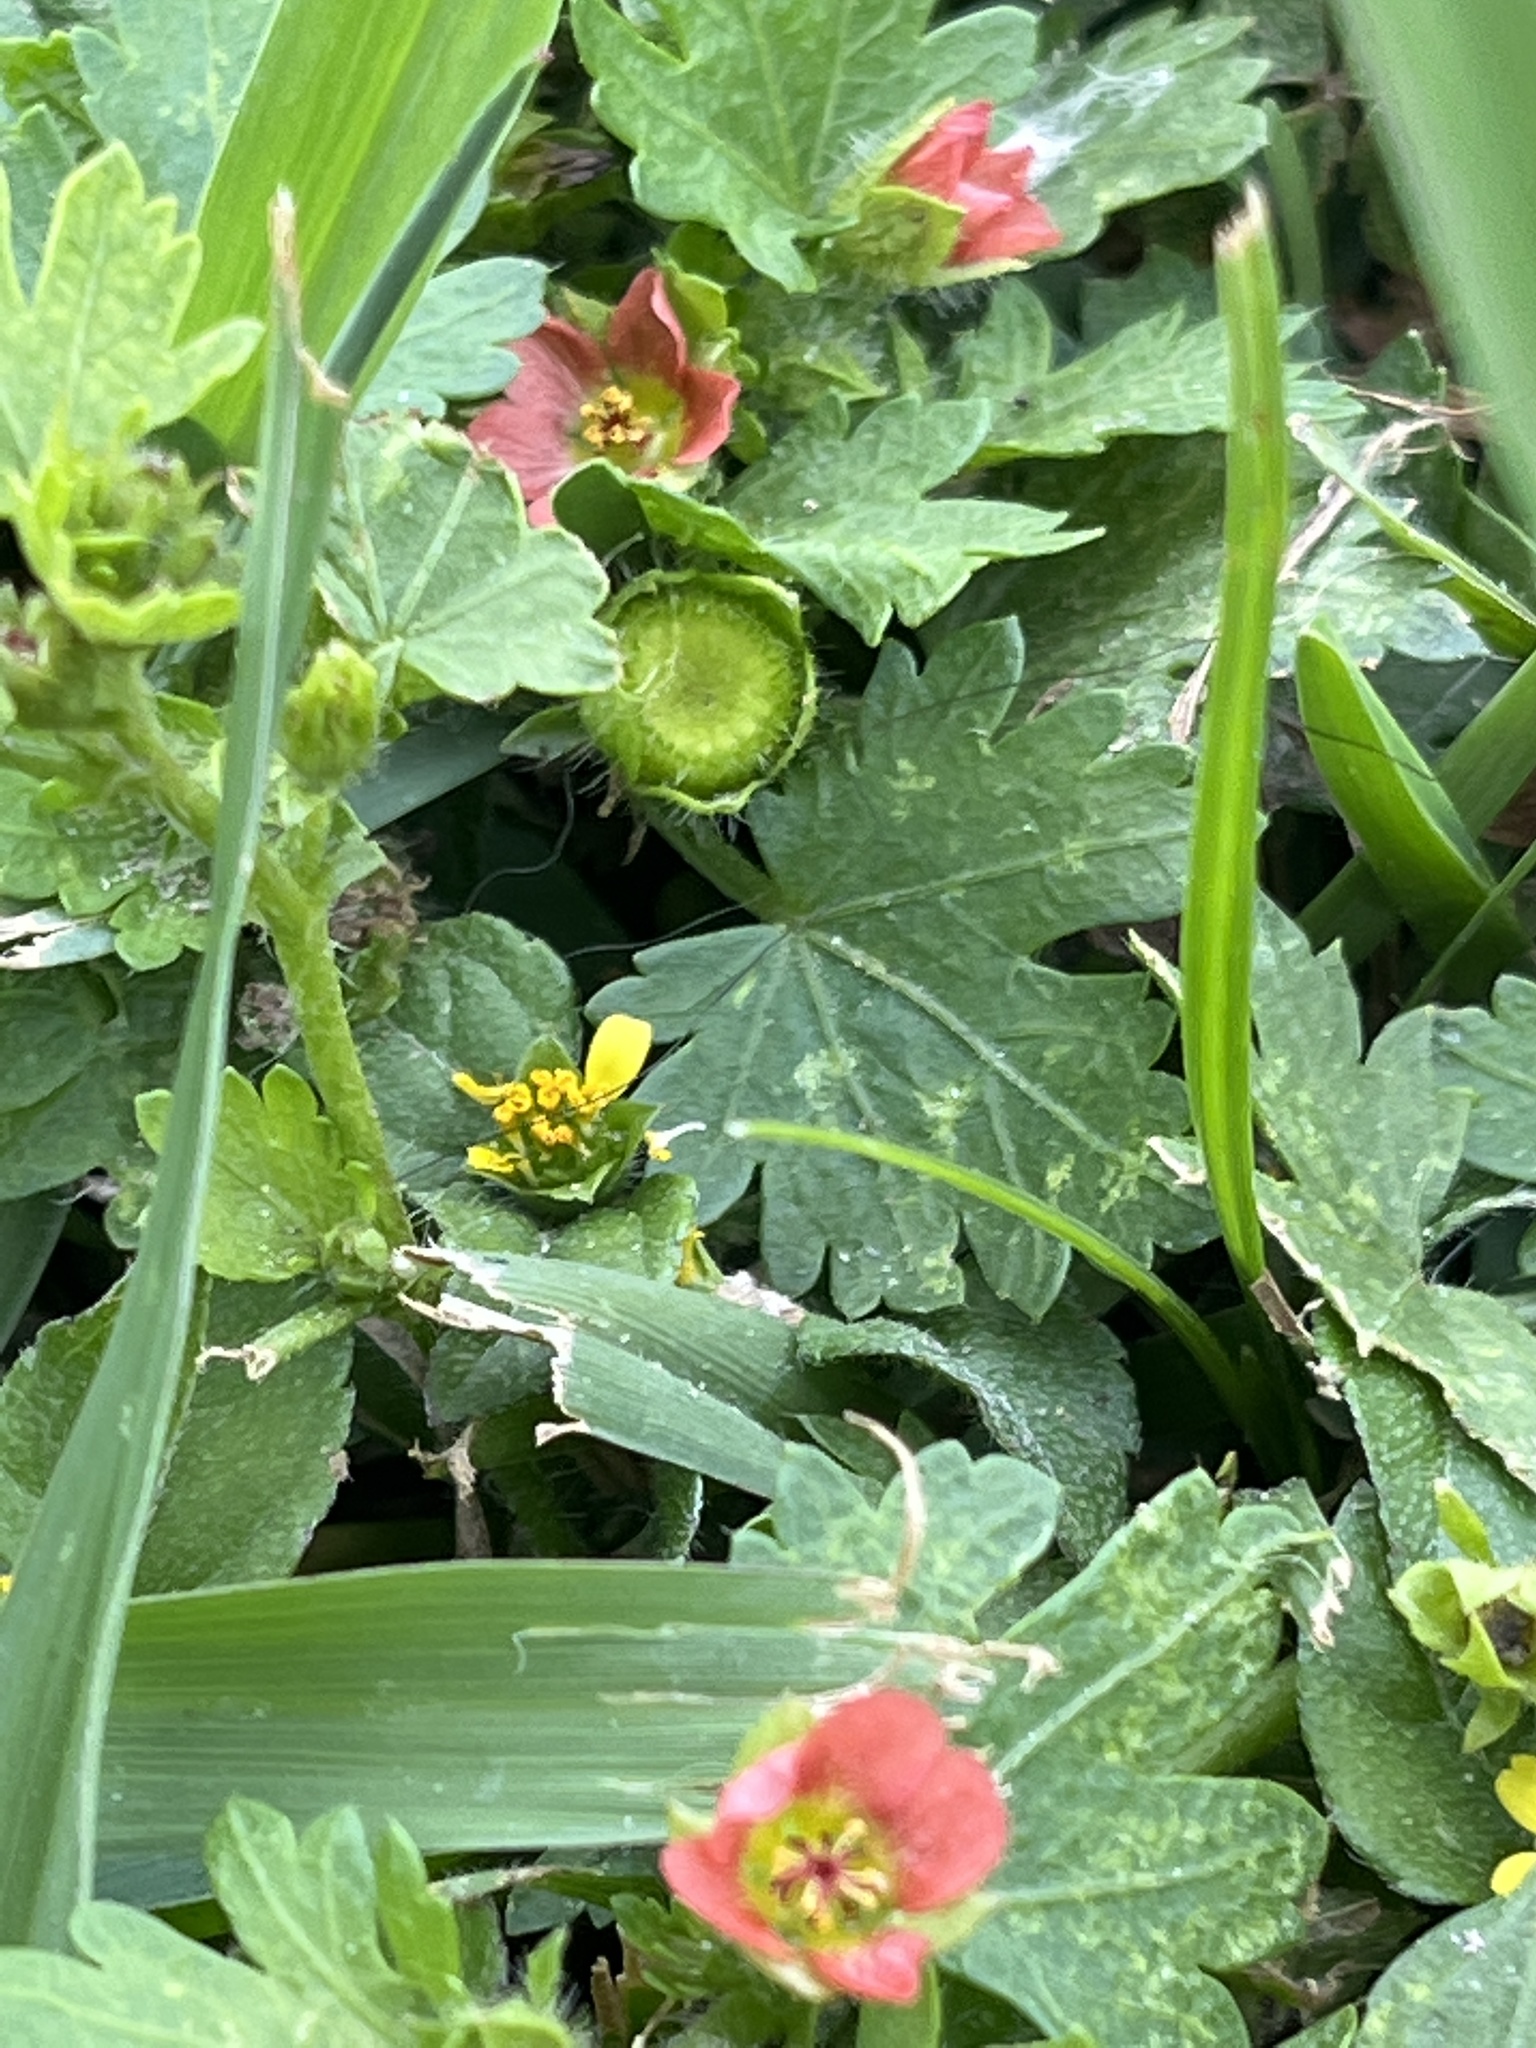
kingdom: Plantae
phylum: Tracheophyta
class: Magnoliopsida
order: Malvales
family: Malvaceae
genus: Modiola
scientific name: Modiola caroliniana
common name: Carolina bristlemallow
